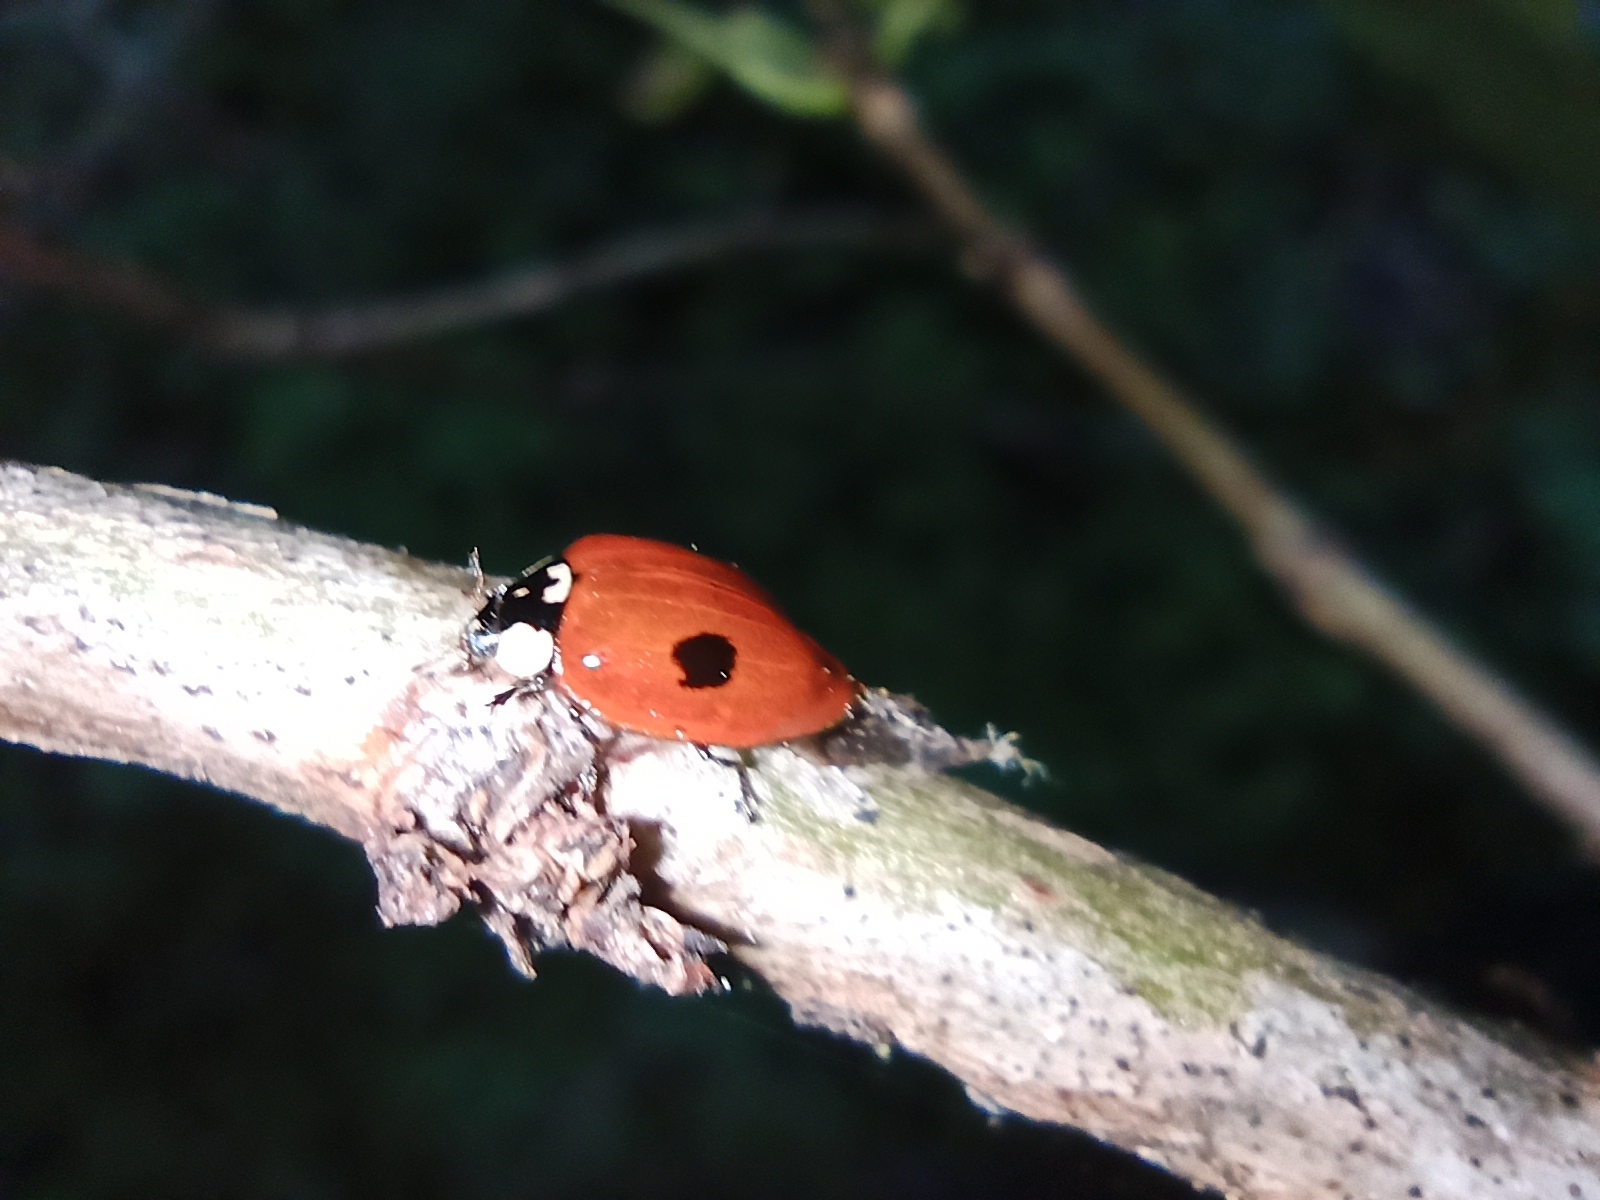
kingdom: Animalia
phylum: Arthropoda
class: Insecta
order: Coleoptera
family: Coccinellidae
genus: Adalia
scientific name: Adalia bipunctata
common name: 2-spot ladybird
